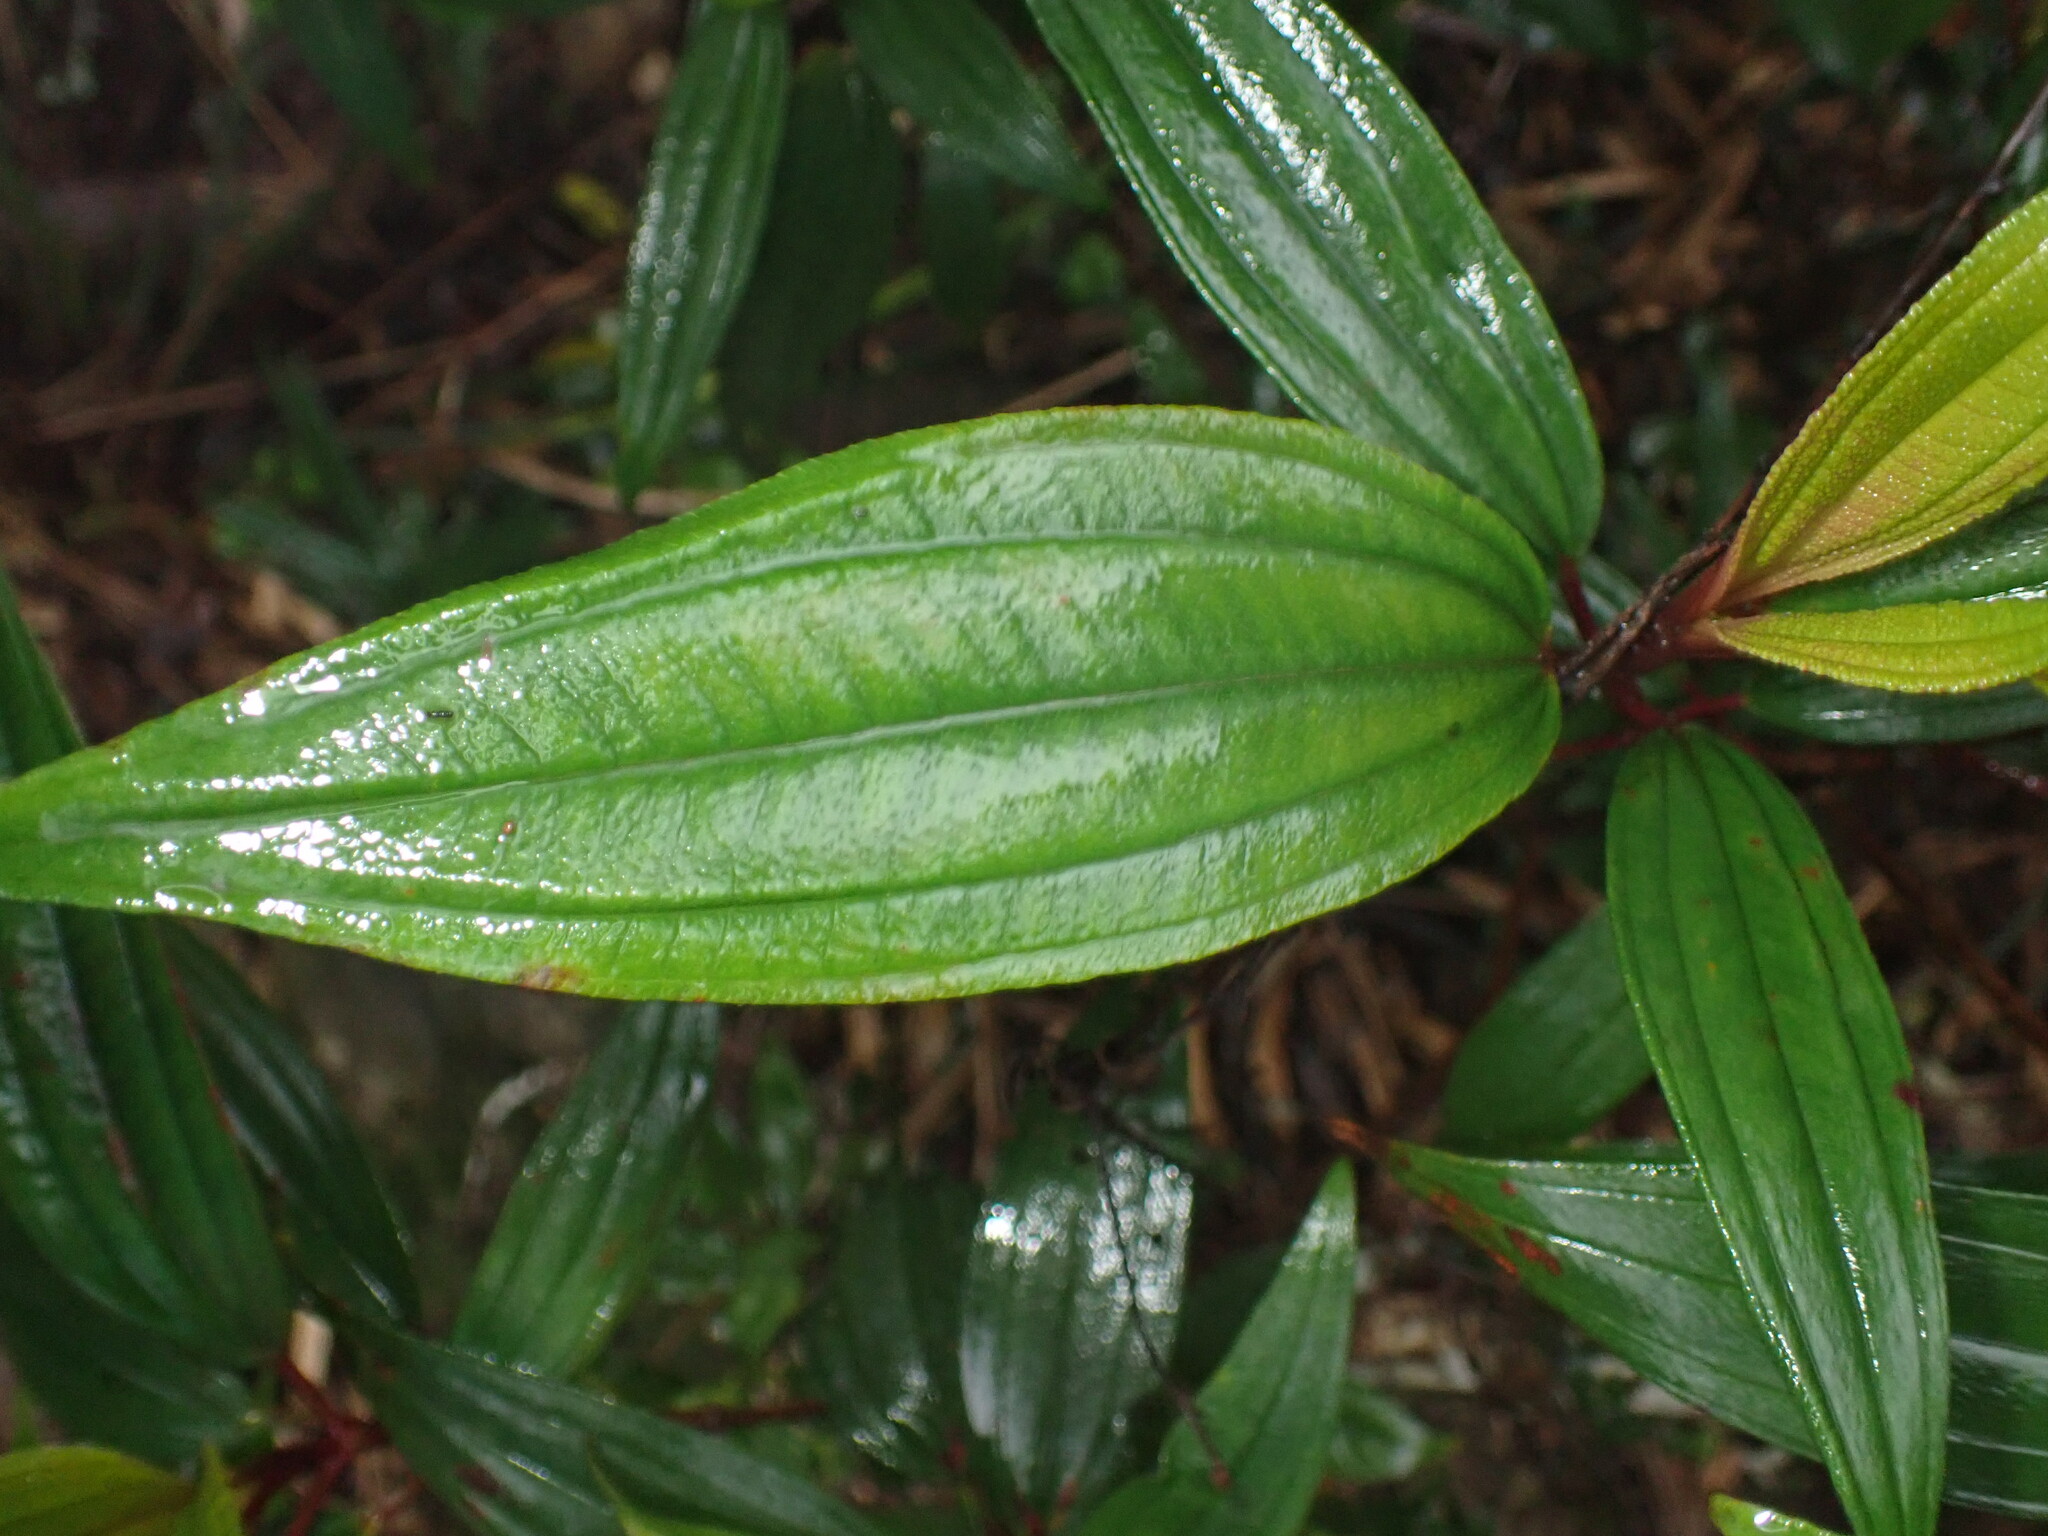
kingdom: Plantae
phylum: Tracheophyta
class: Magnoliopsida
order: Myrtales
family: Melastomataceae
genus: Melastoma
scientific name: Melastoma sanguineum
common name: Red melastome
